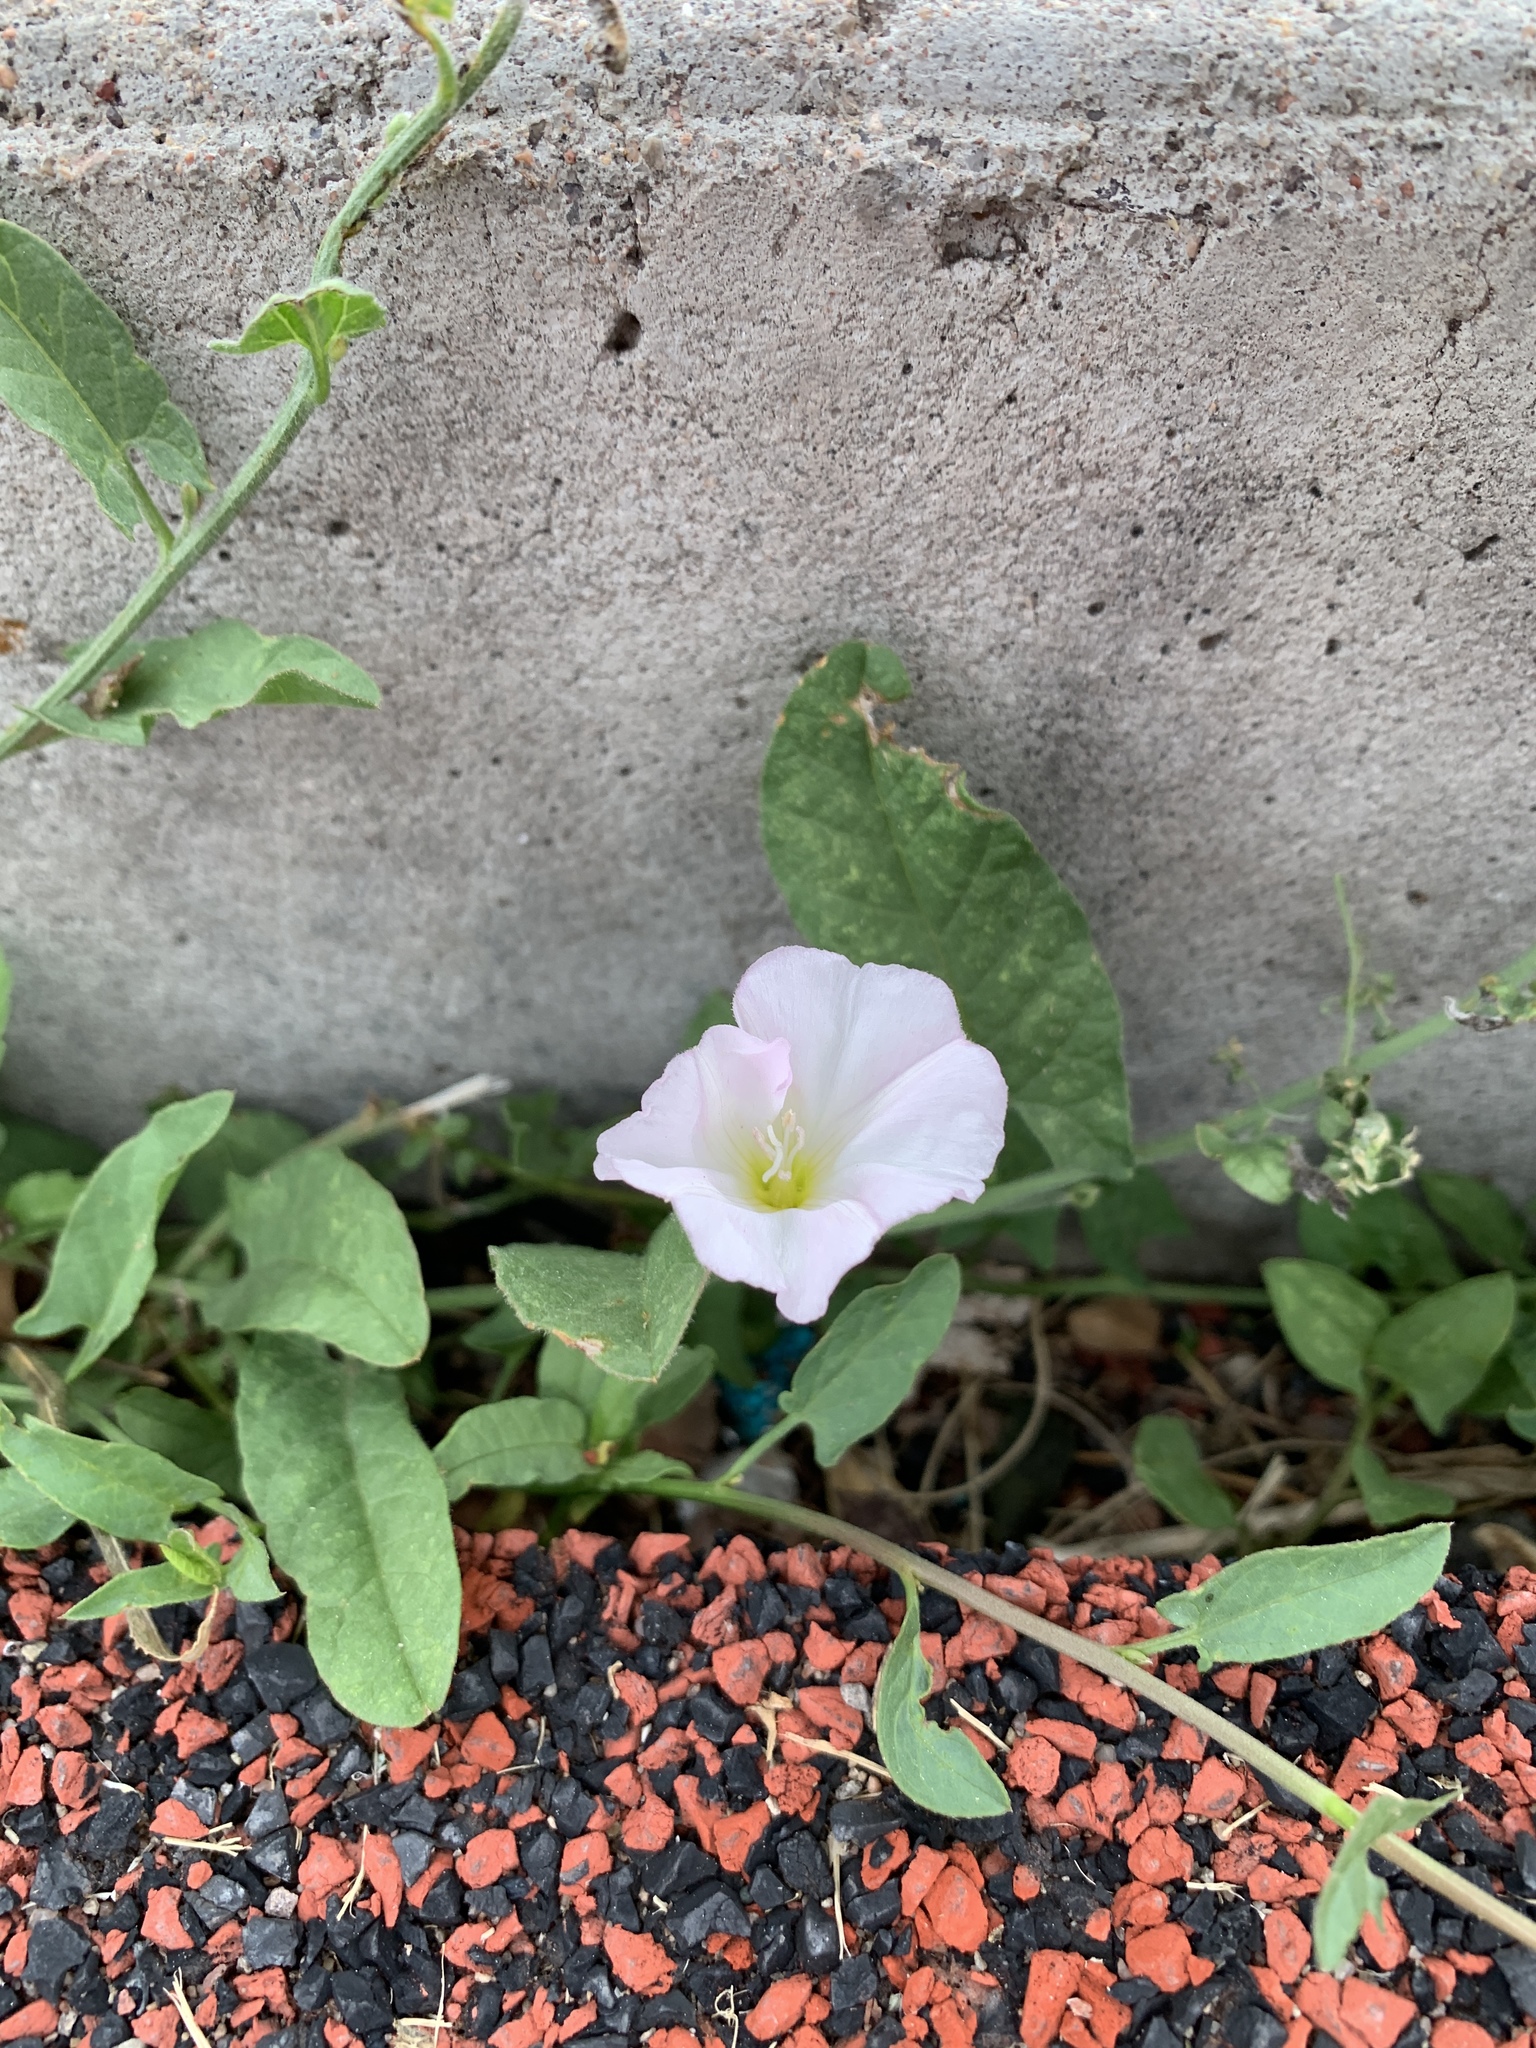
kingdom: Plantae
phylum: Tracheophyta
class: Magnoliopsida
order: Solanales
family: Convolvulaceae
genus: Convolvulus
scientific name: Convolvulus arvensis
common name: Field bindweed
